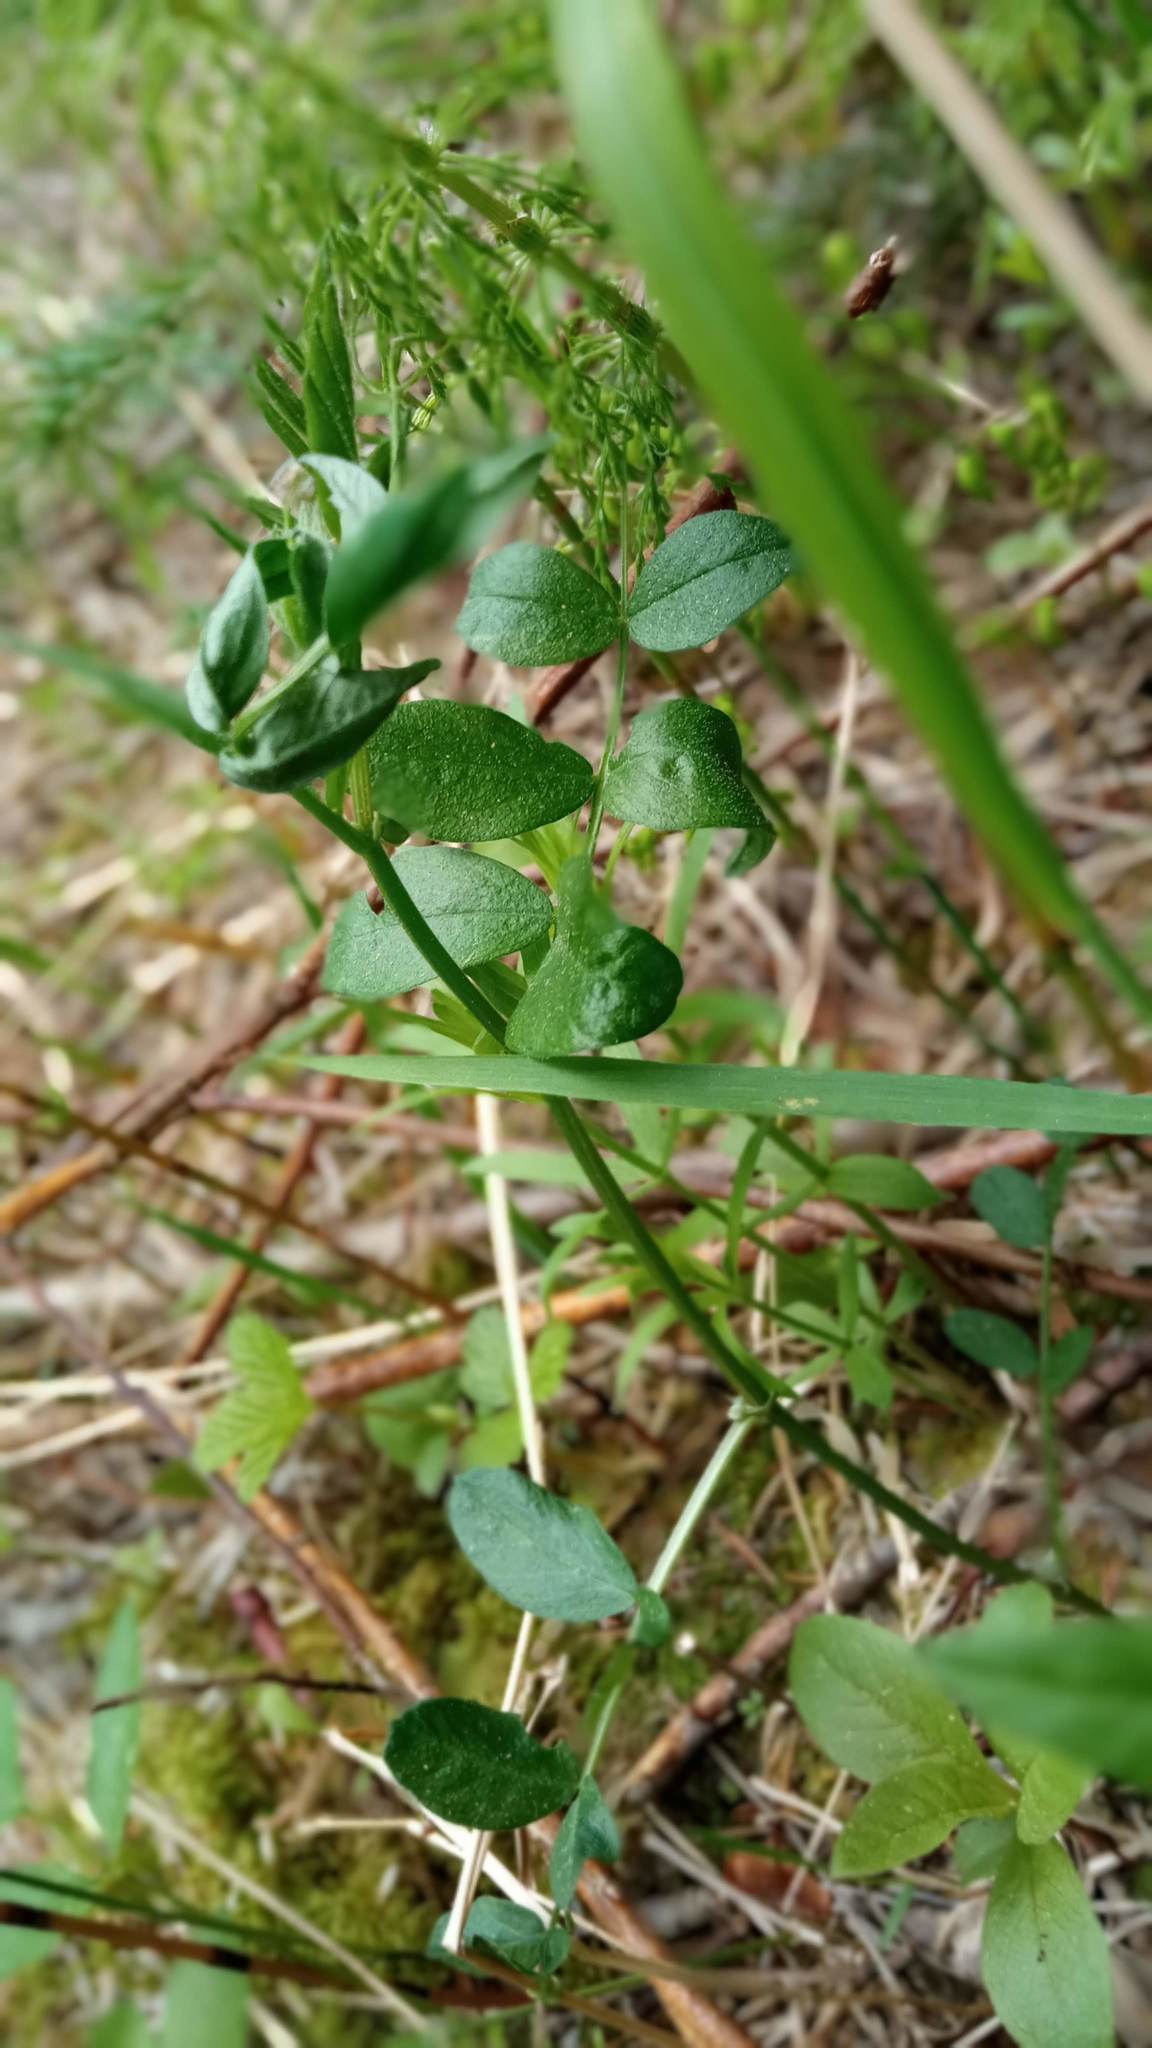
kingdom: Plantae
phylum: Tracheophyta
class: Magnoliopsida
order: Fabales
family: Fabaceae
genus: Vicia
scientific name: Vicia sepium
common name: Bush vetch
